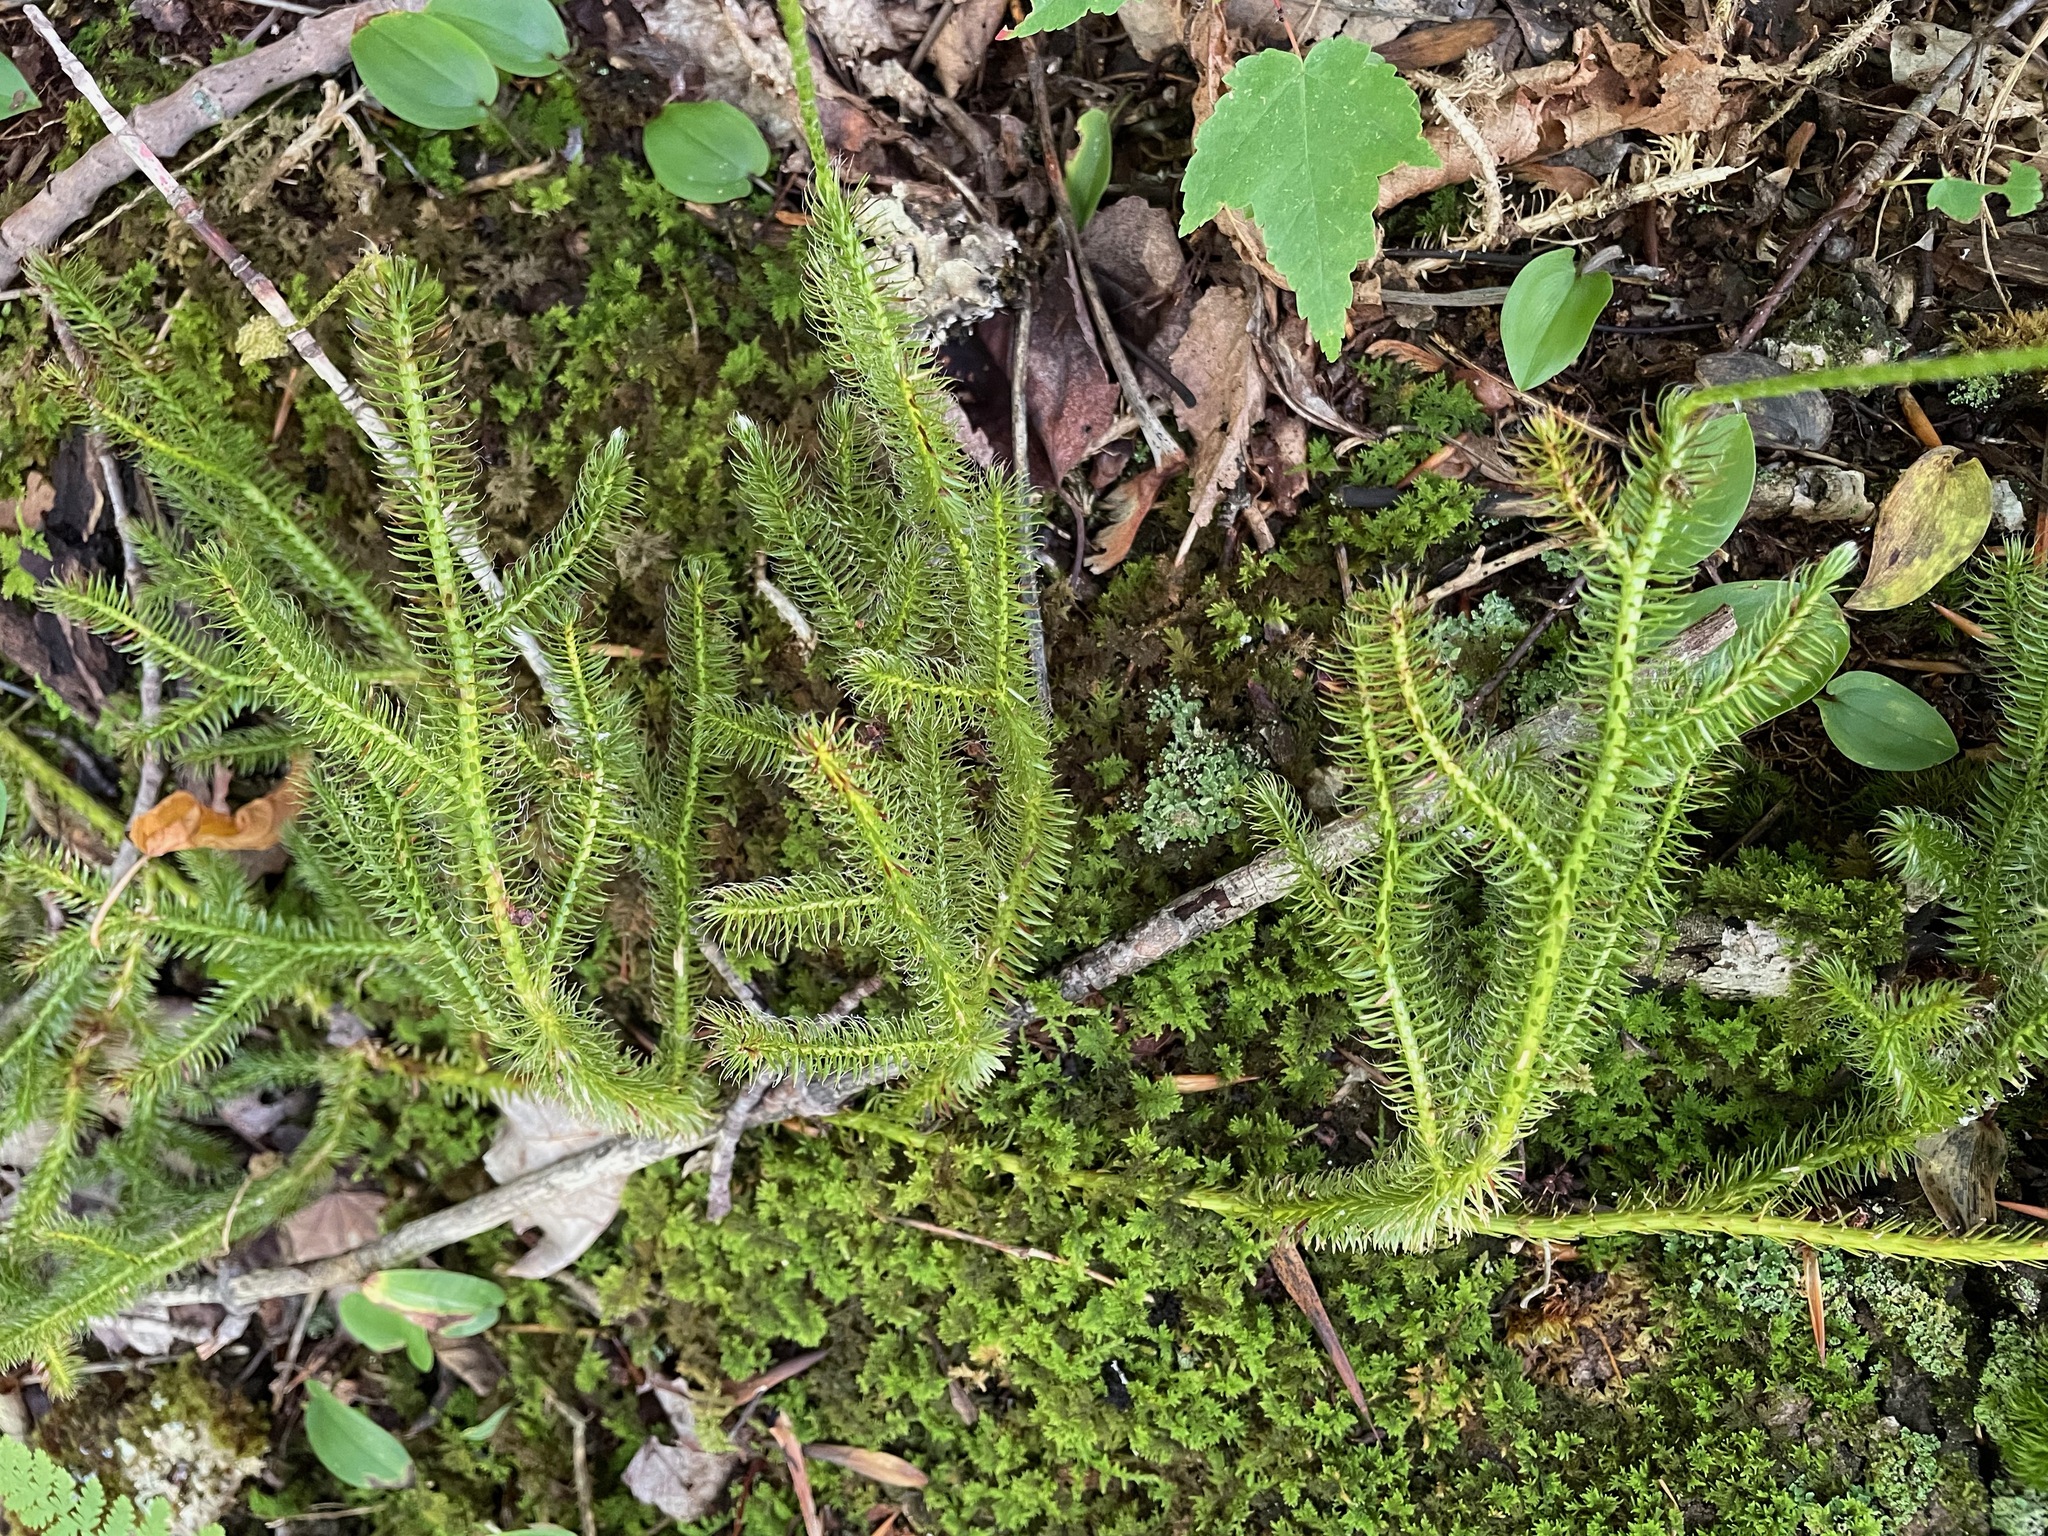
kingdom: Plantae
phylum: Tracheophyta
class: Lycopodiopsida
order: Lycopodiales
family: Lycopodiaceae
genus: Lycopodium
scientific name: Lycopodium clavatum
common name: Stag's-horn clubmoss
